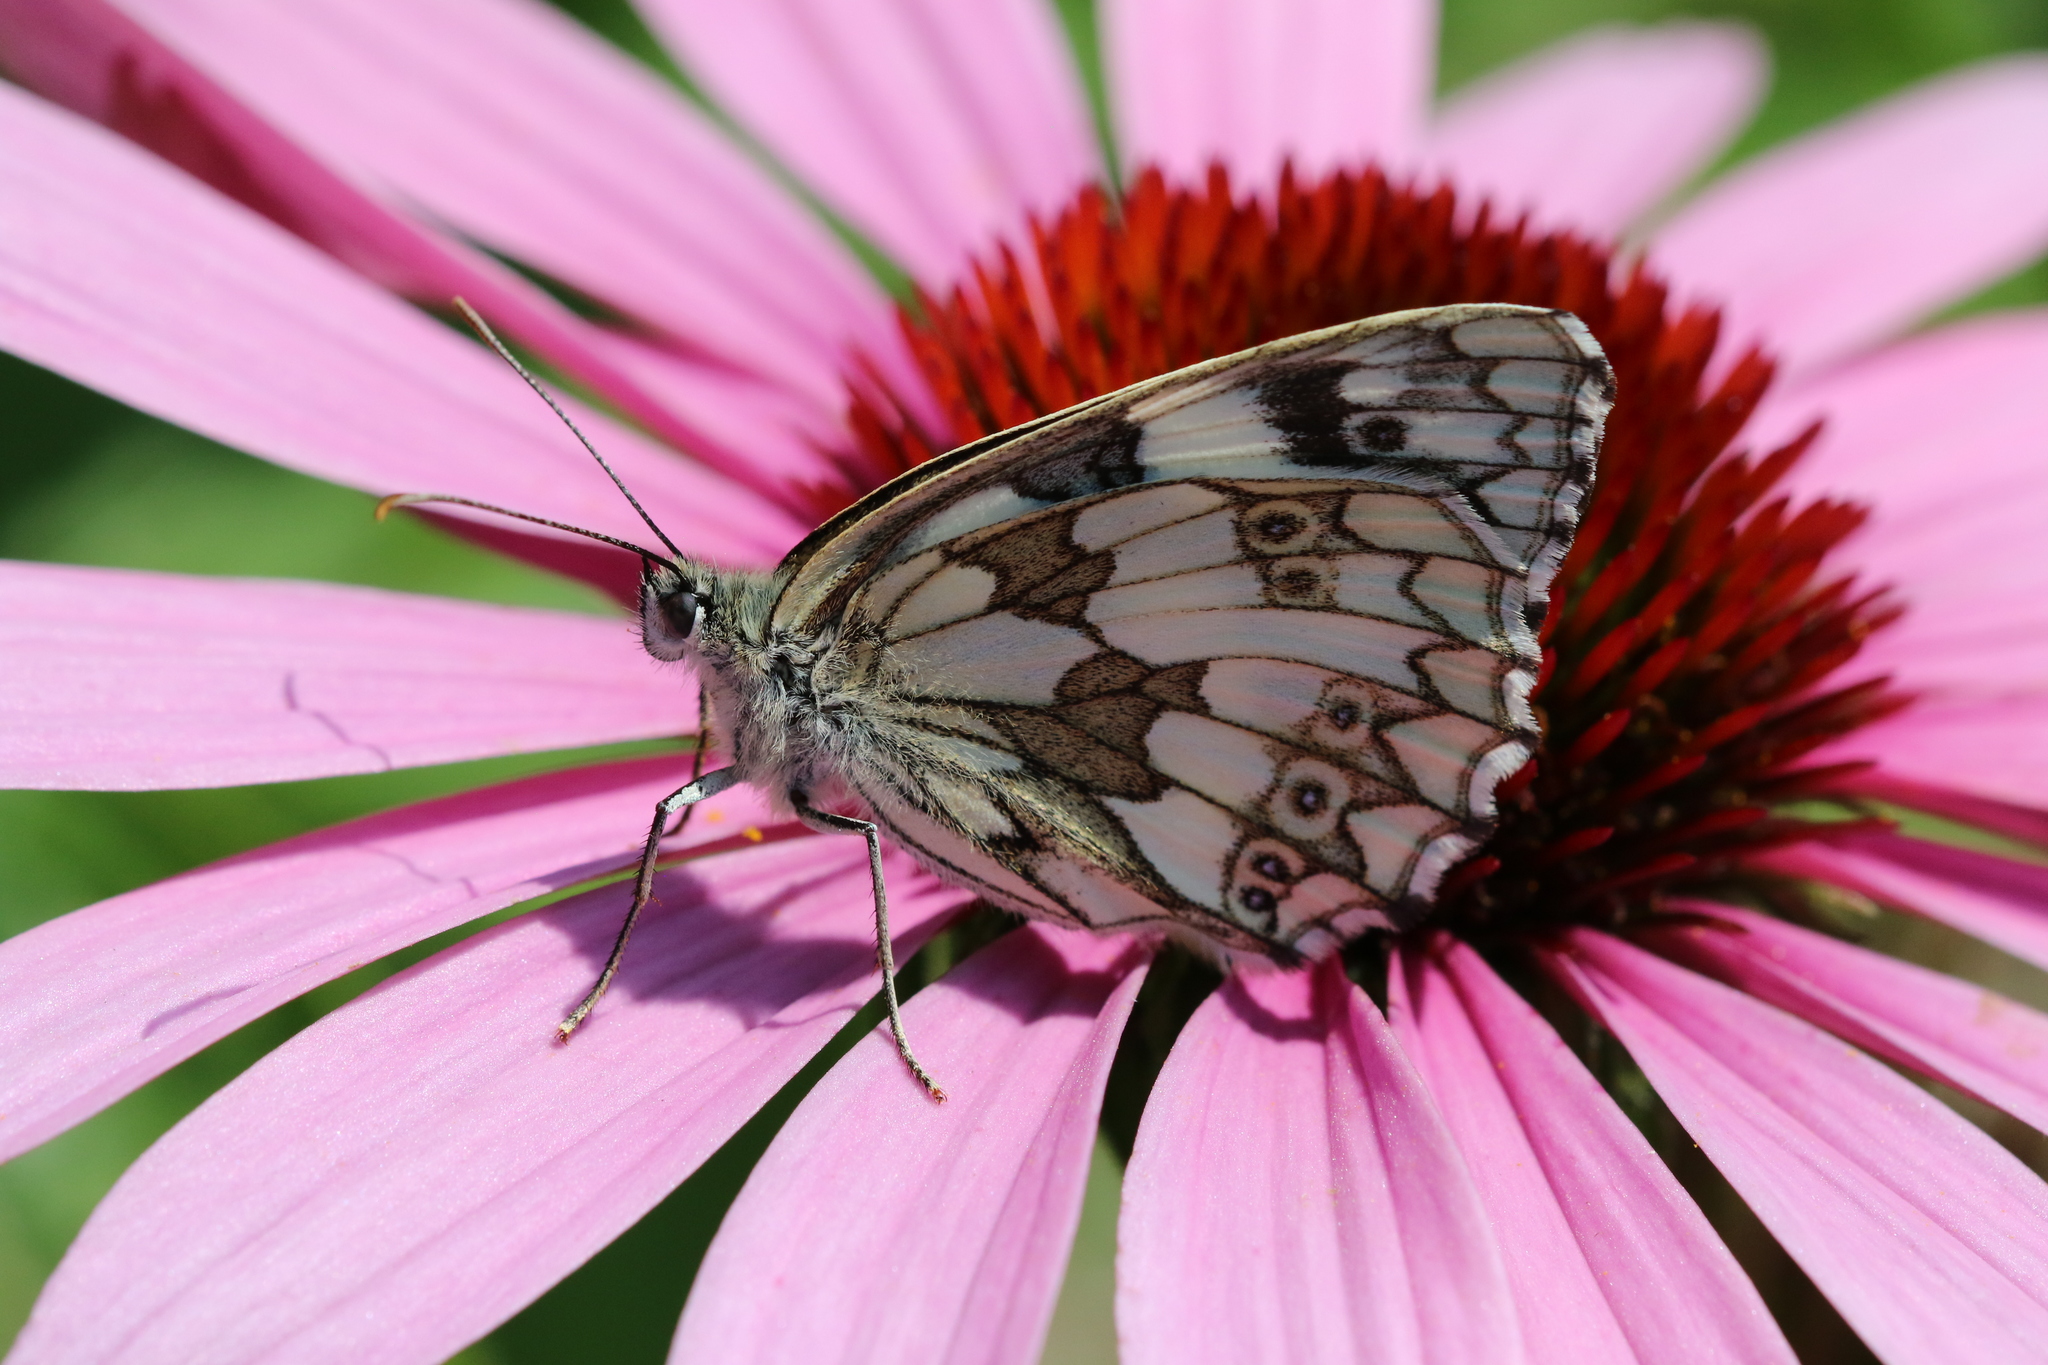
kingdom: Animalia
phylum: Arthropoda
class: Insecta
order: Lepidoptera
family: Nymphalidae
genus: Melanargia
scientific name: Melanargia galathea
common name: Marbled white
